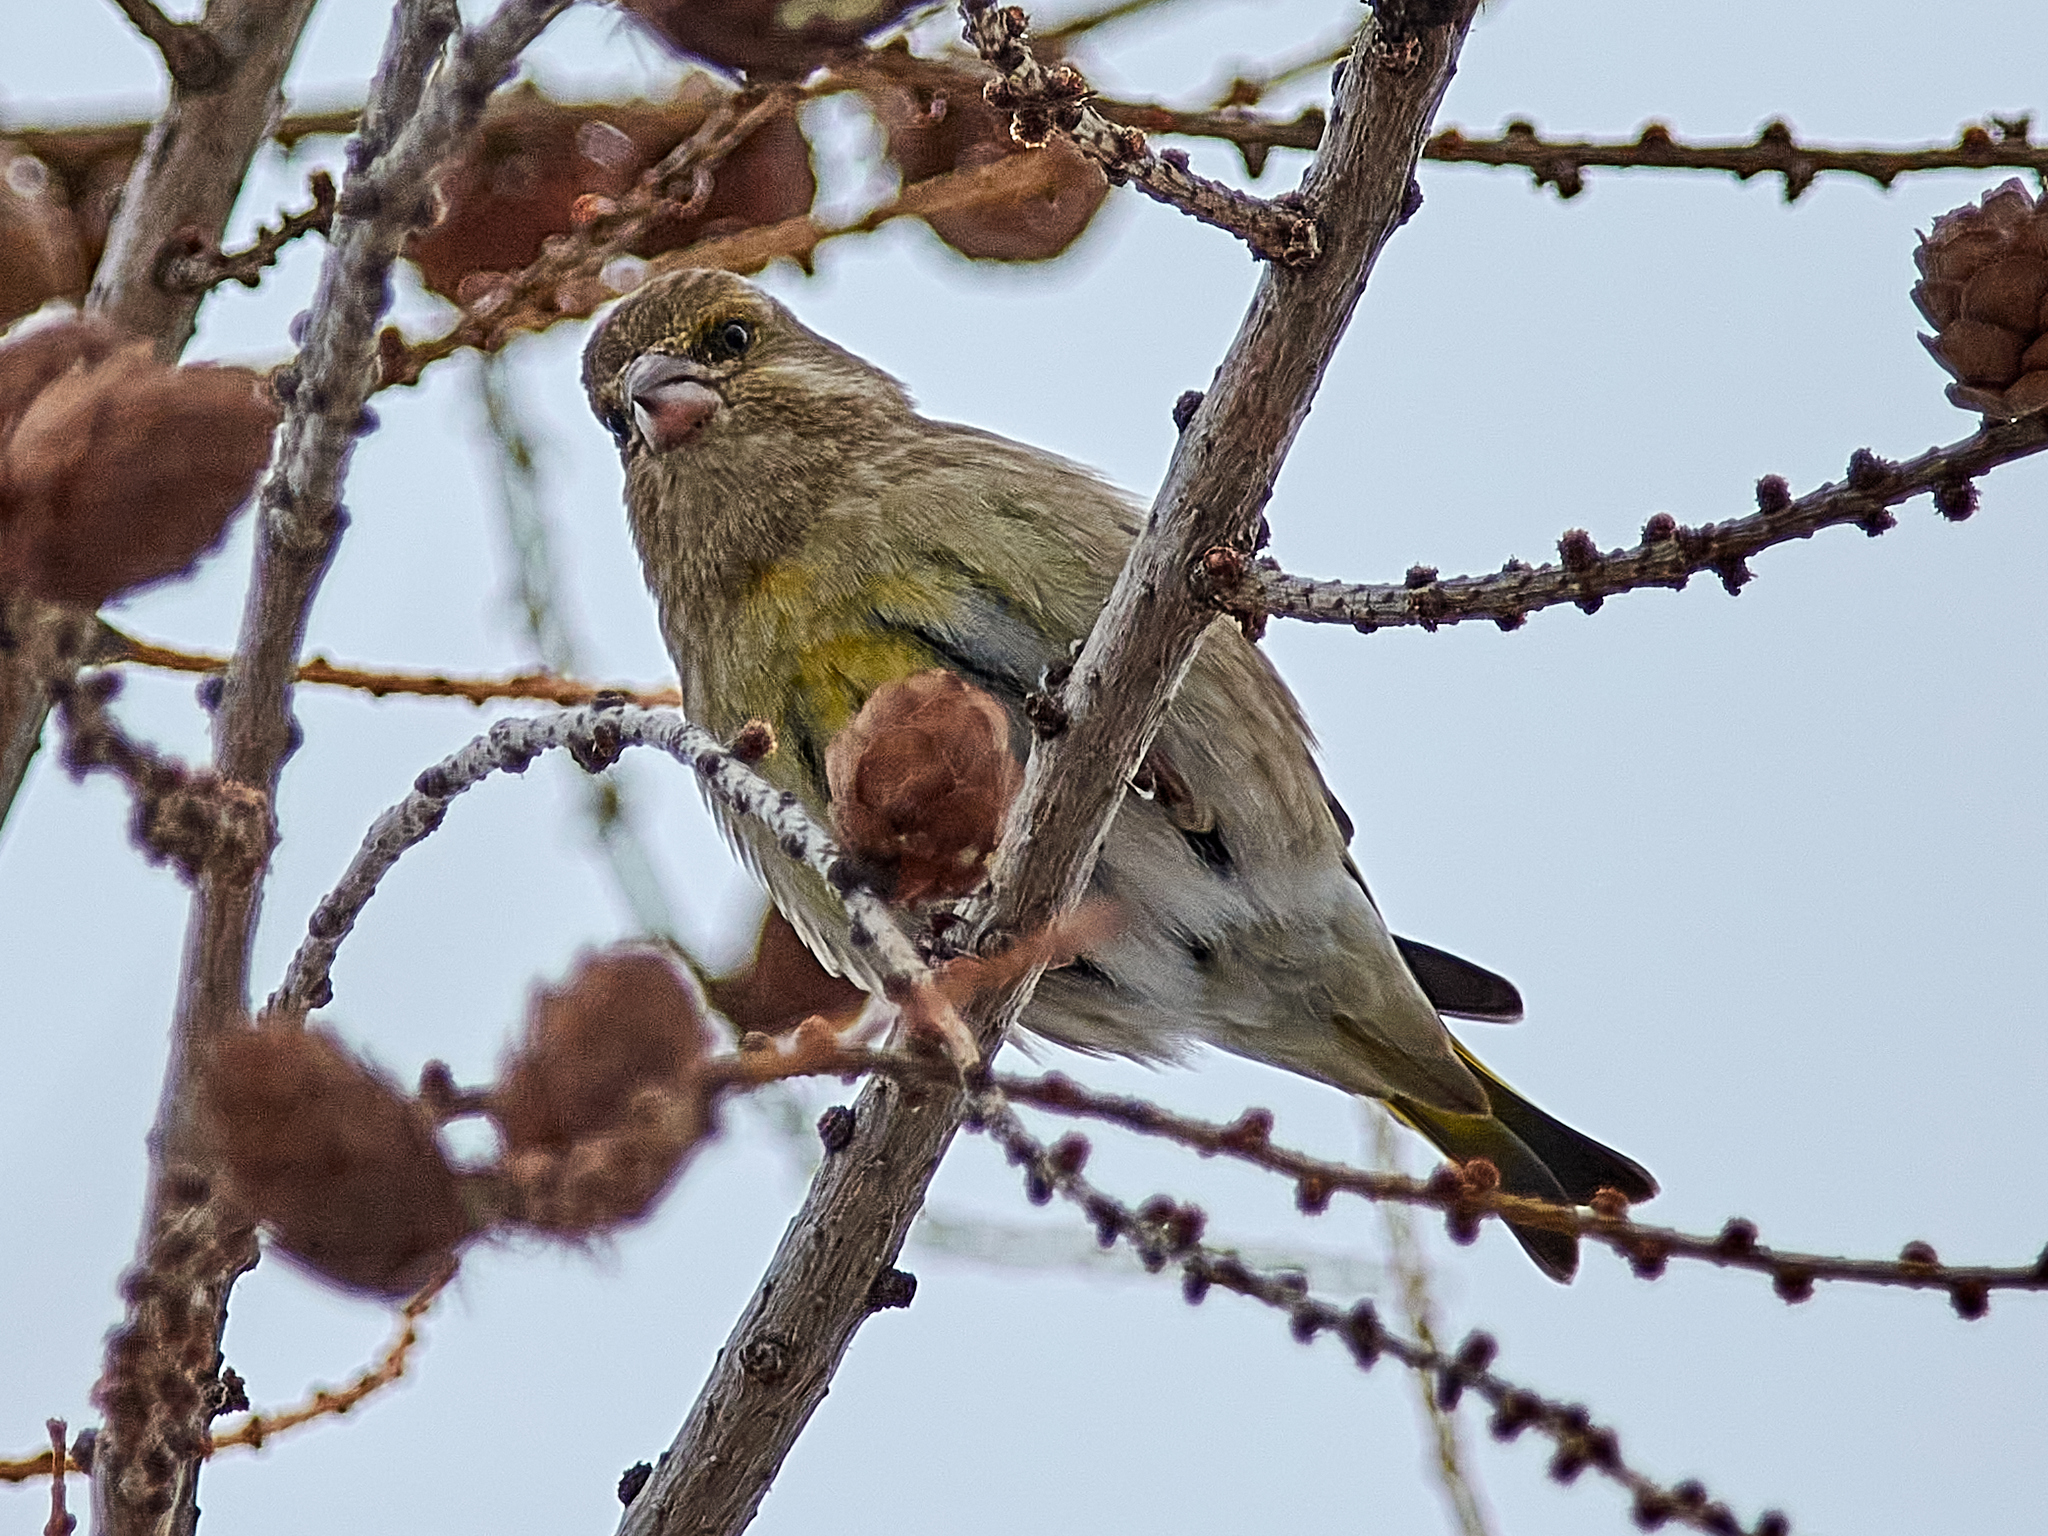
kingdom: Plantae
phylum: Tracheophyta
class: Liliopsida
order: Poales
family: Poaceae
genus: Chloris
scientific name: Chloris chloris
